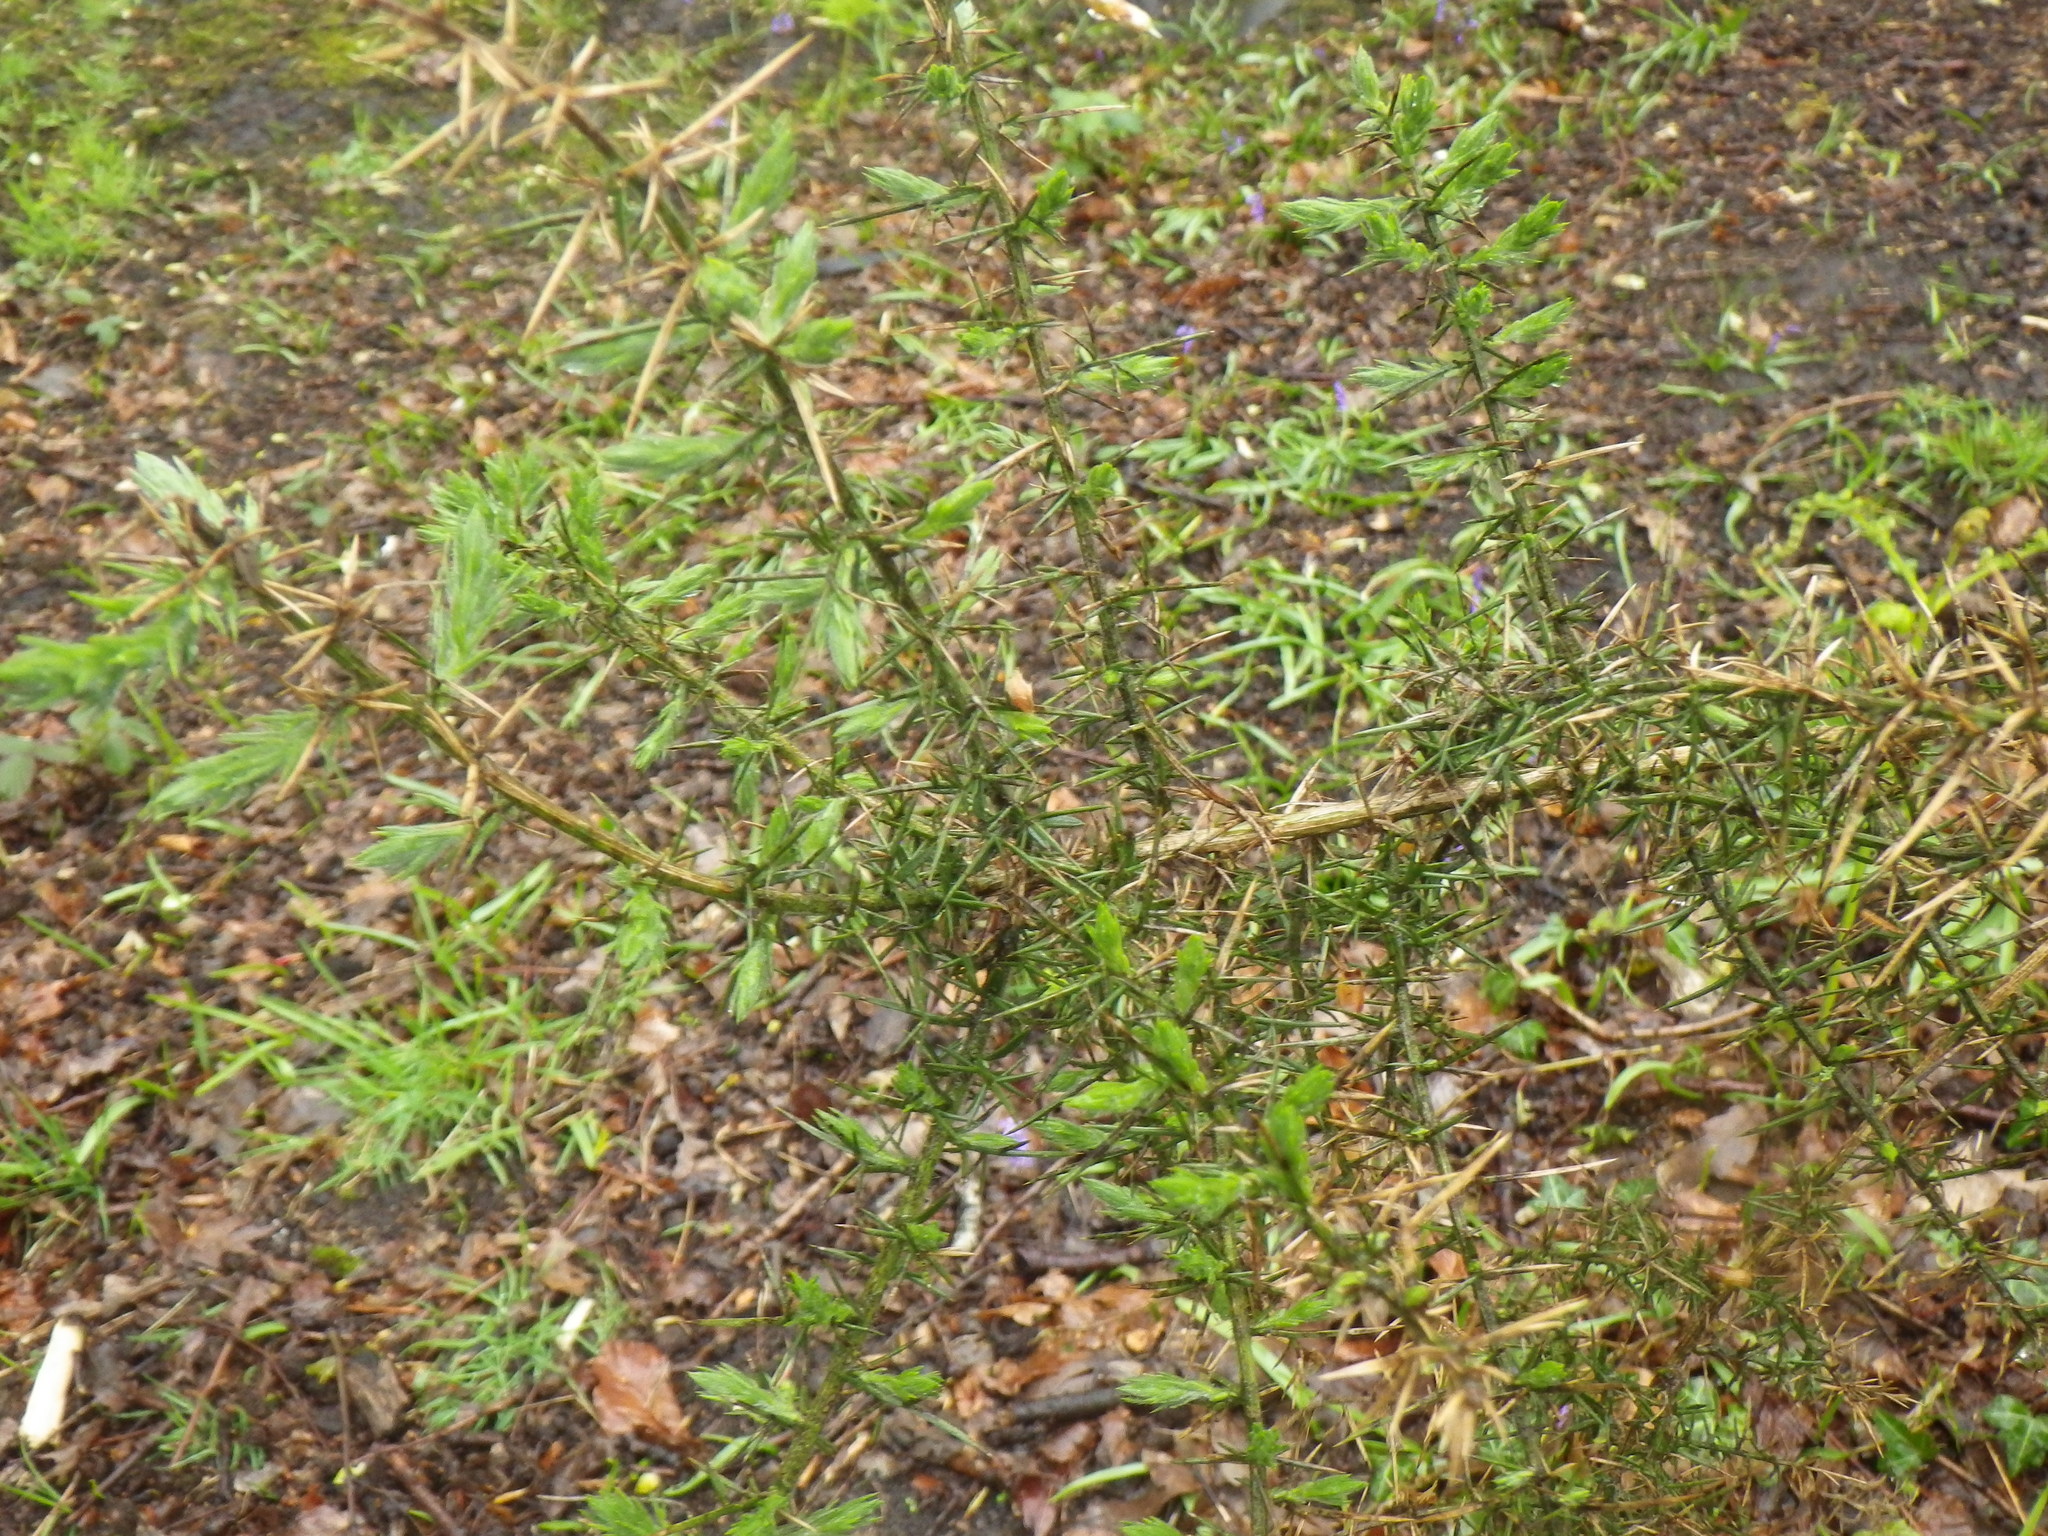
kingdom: Plantae
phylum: Tracheophyta
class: Magnoliopsida
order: Fabales
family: Fabaceae
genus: Ulex
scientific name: Ulex europaeus
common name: Common gorse
